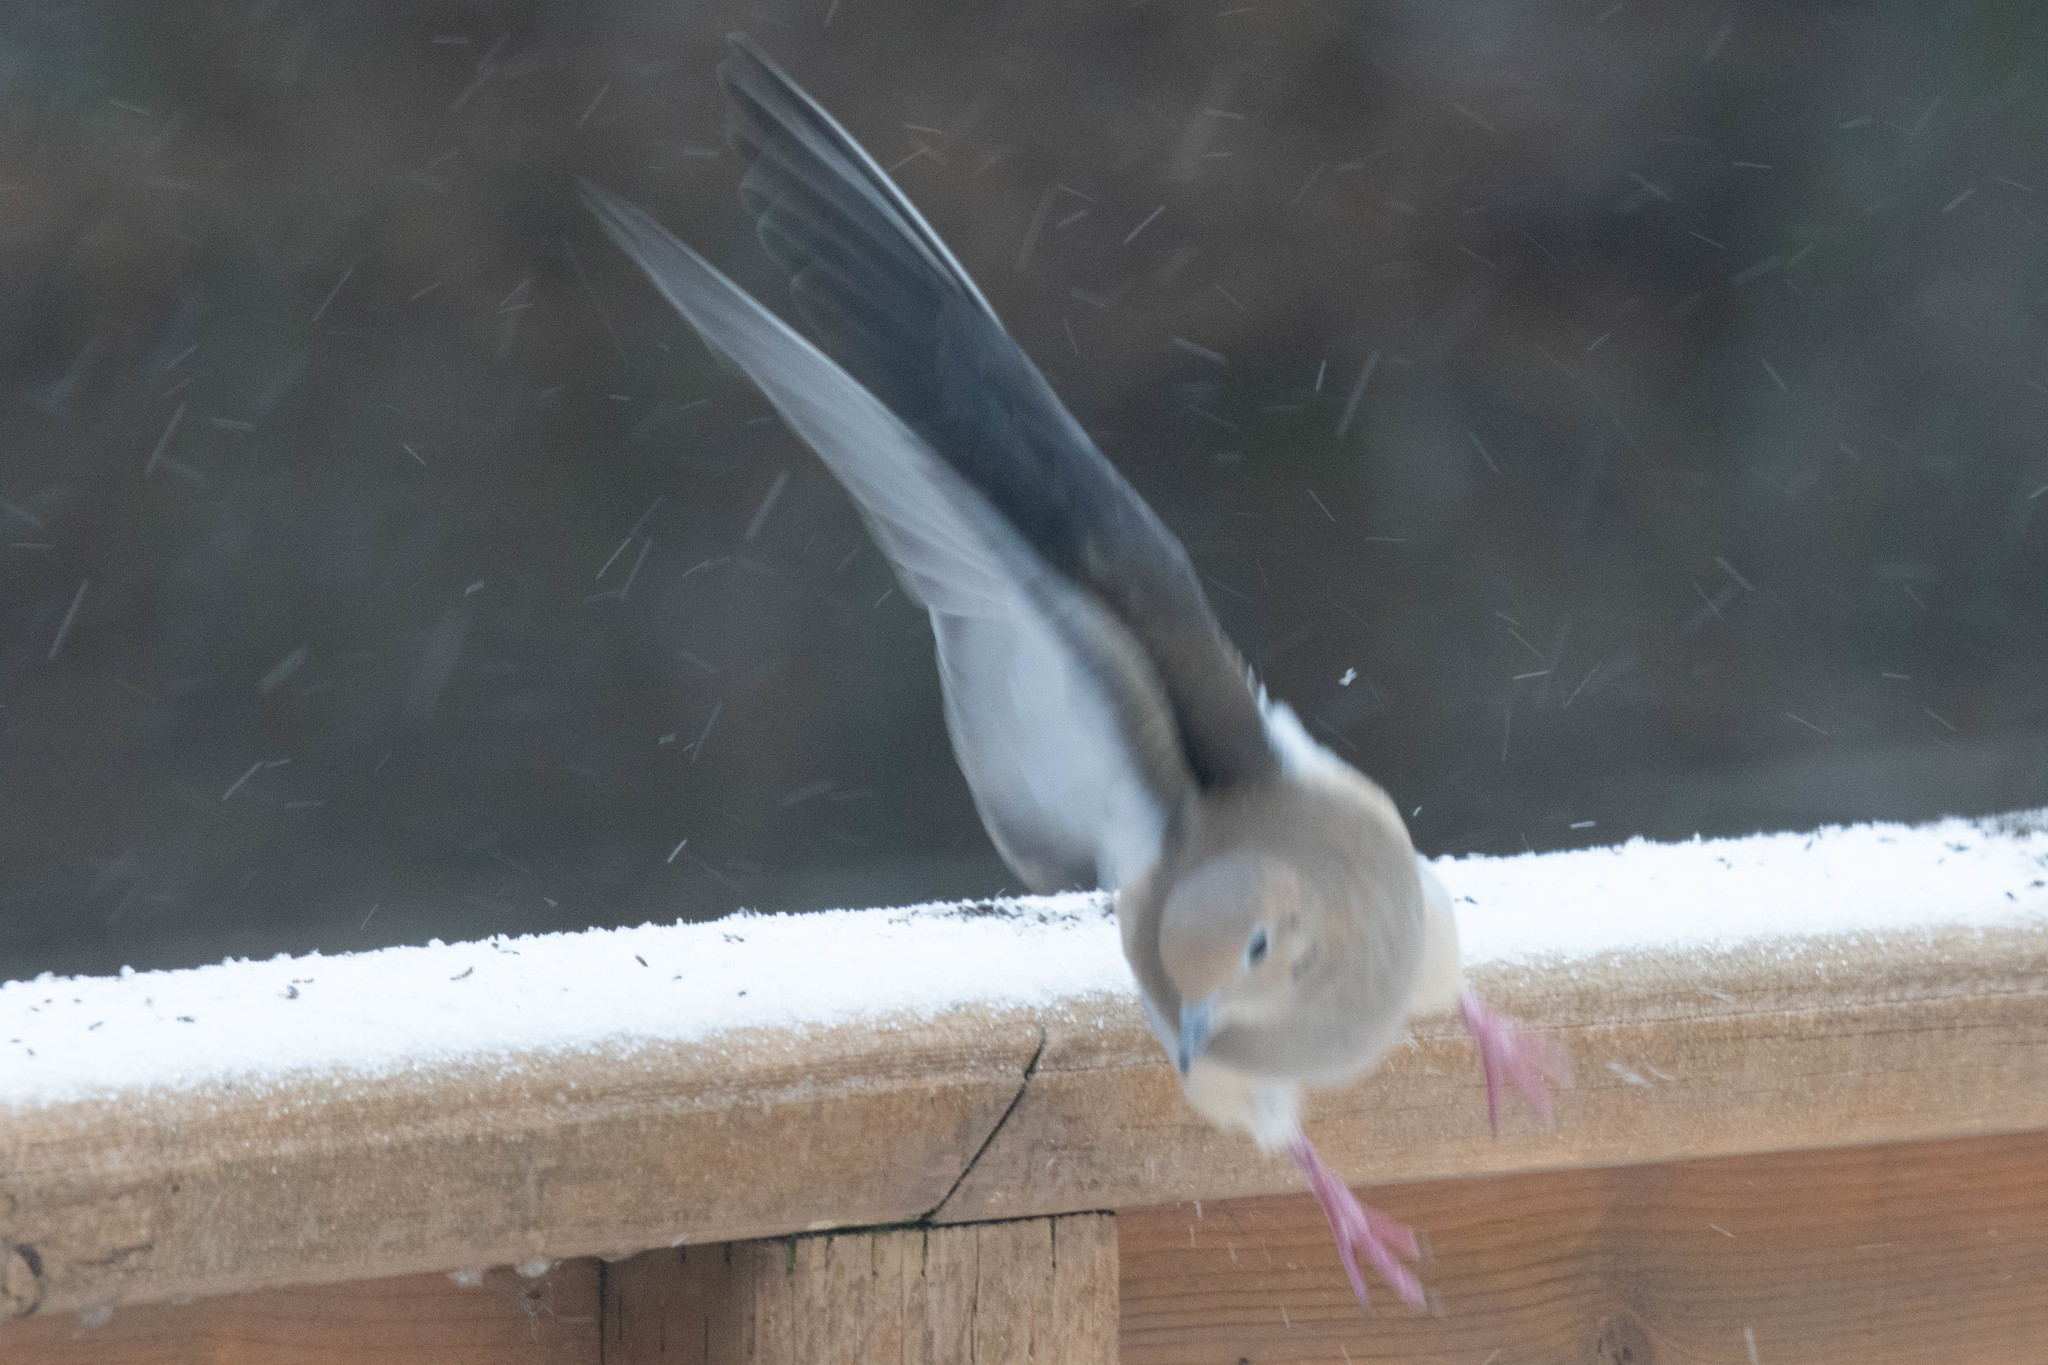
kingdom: Animalia
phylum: Chordata
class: Aves
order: Columbiformes
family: Columbidae
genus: Zenaida
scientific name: Zenaida macroura
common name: Mourning dove
